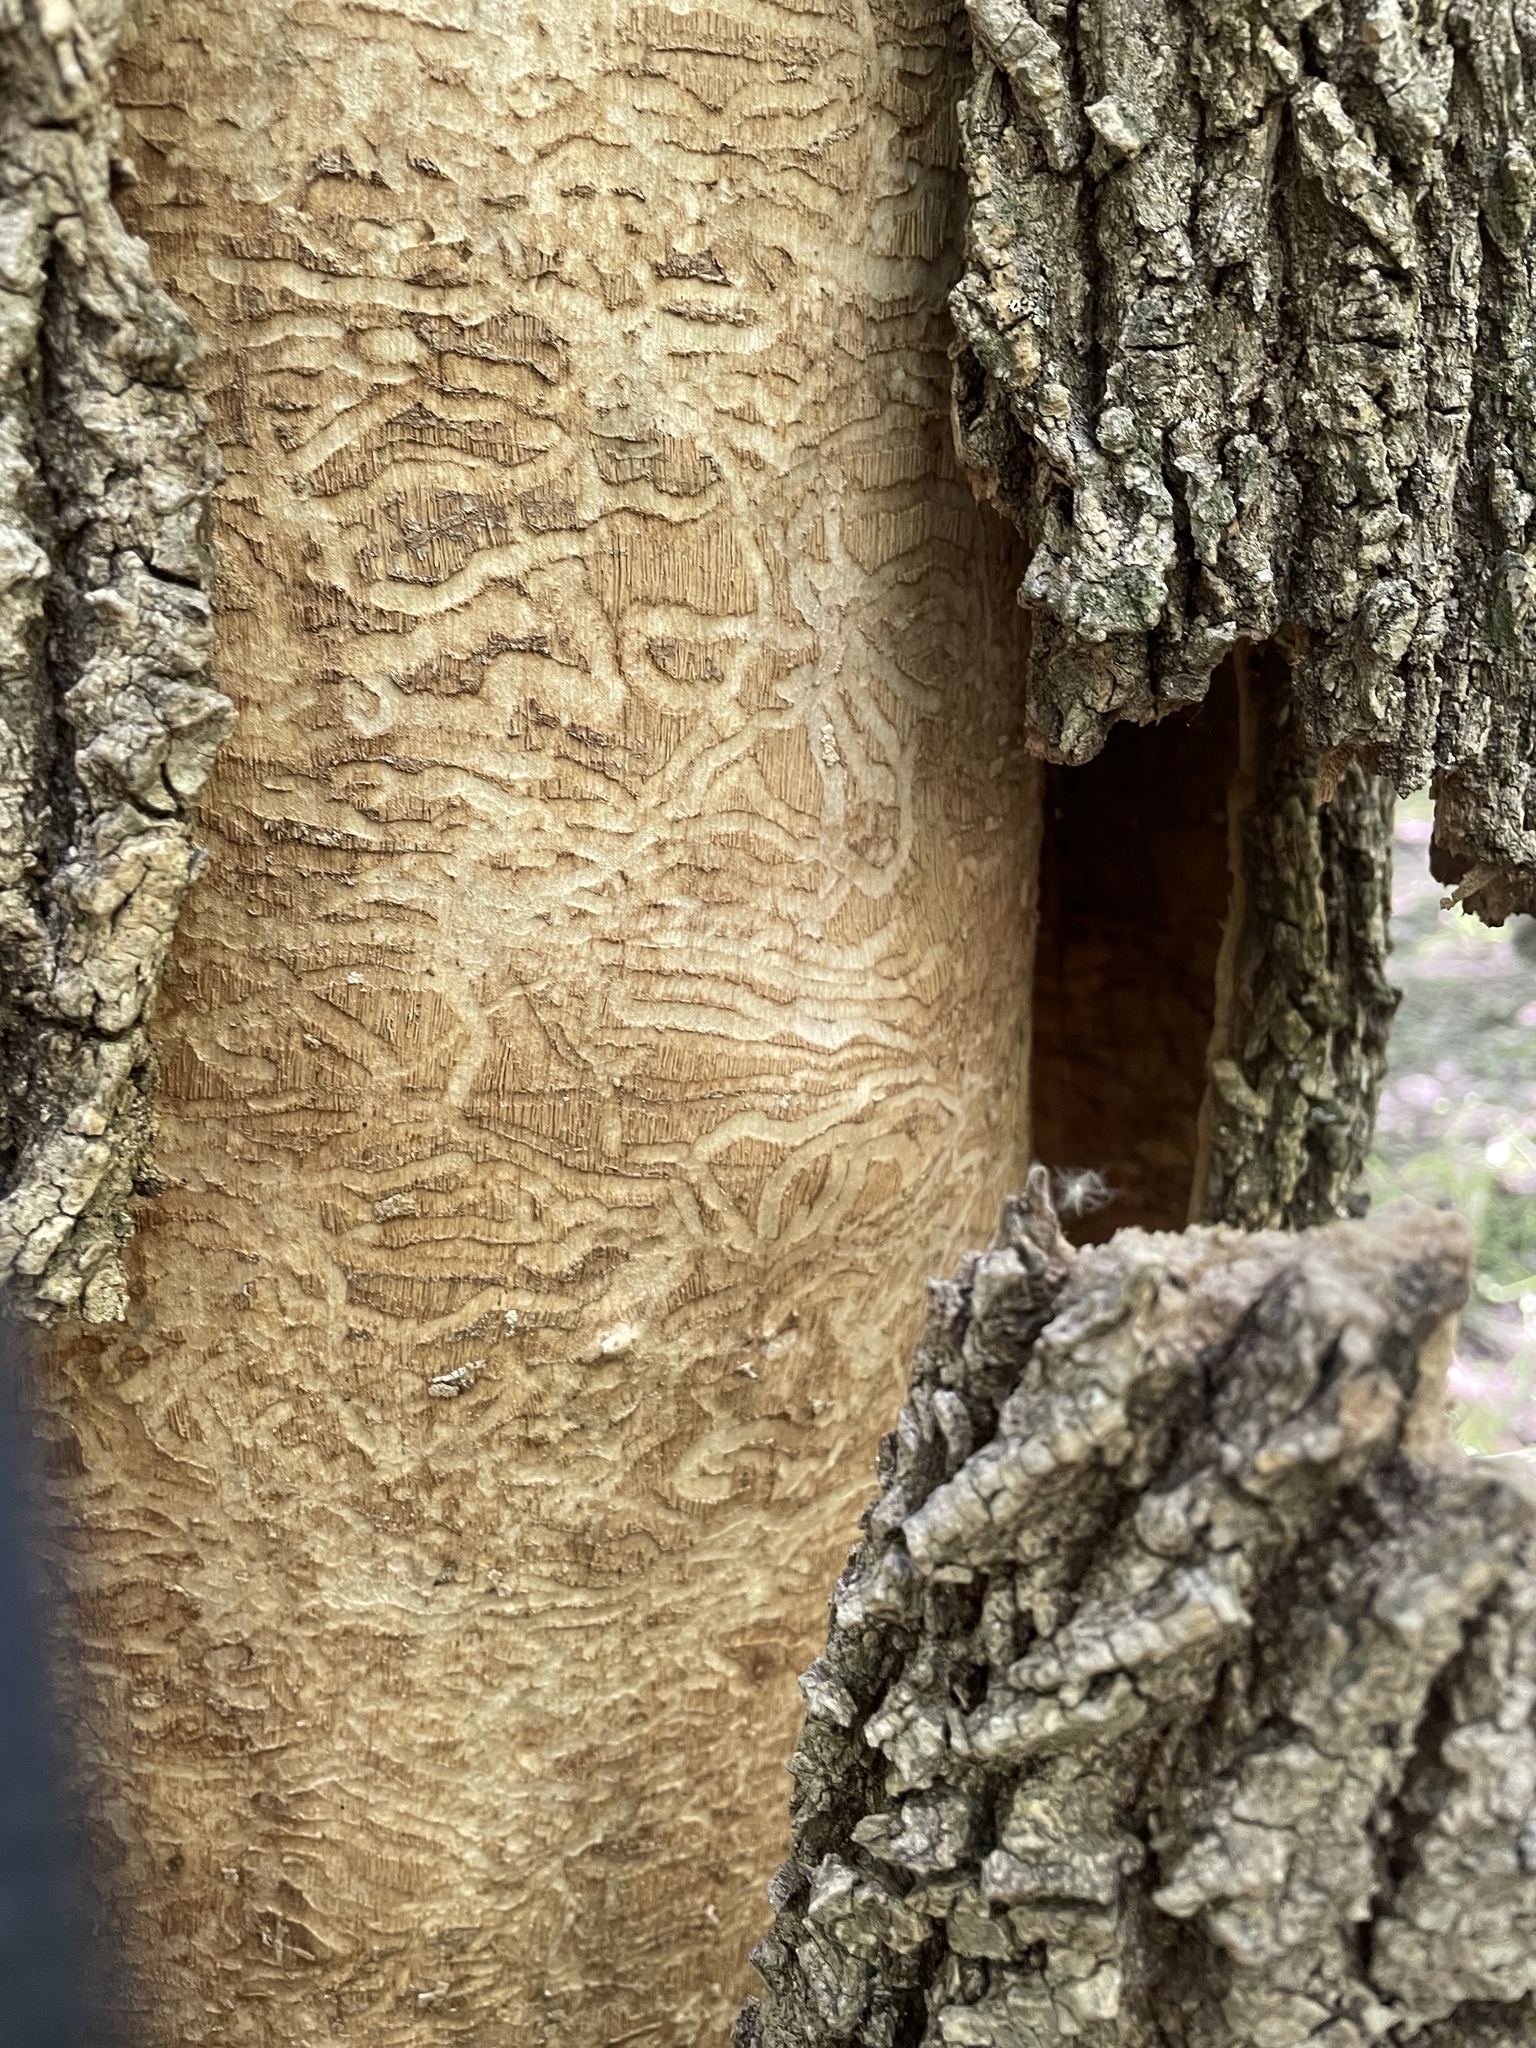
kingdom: Animalia
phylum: Arthropoda
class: Insecta
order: Coleoptera
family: Buprestidae
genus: Agrilus
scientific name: Agrilus planipennis
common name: Emerald ash borer
